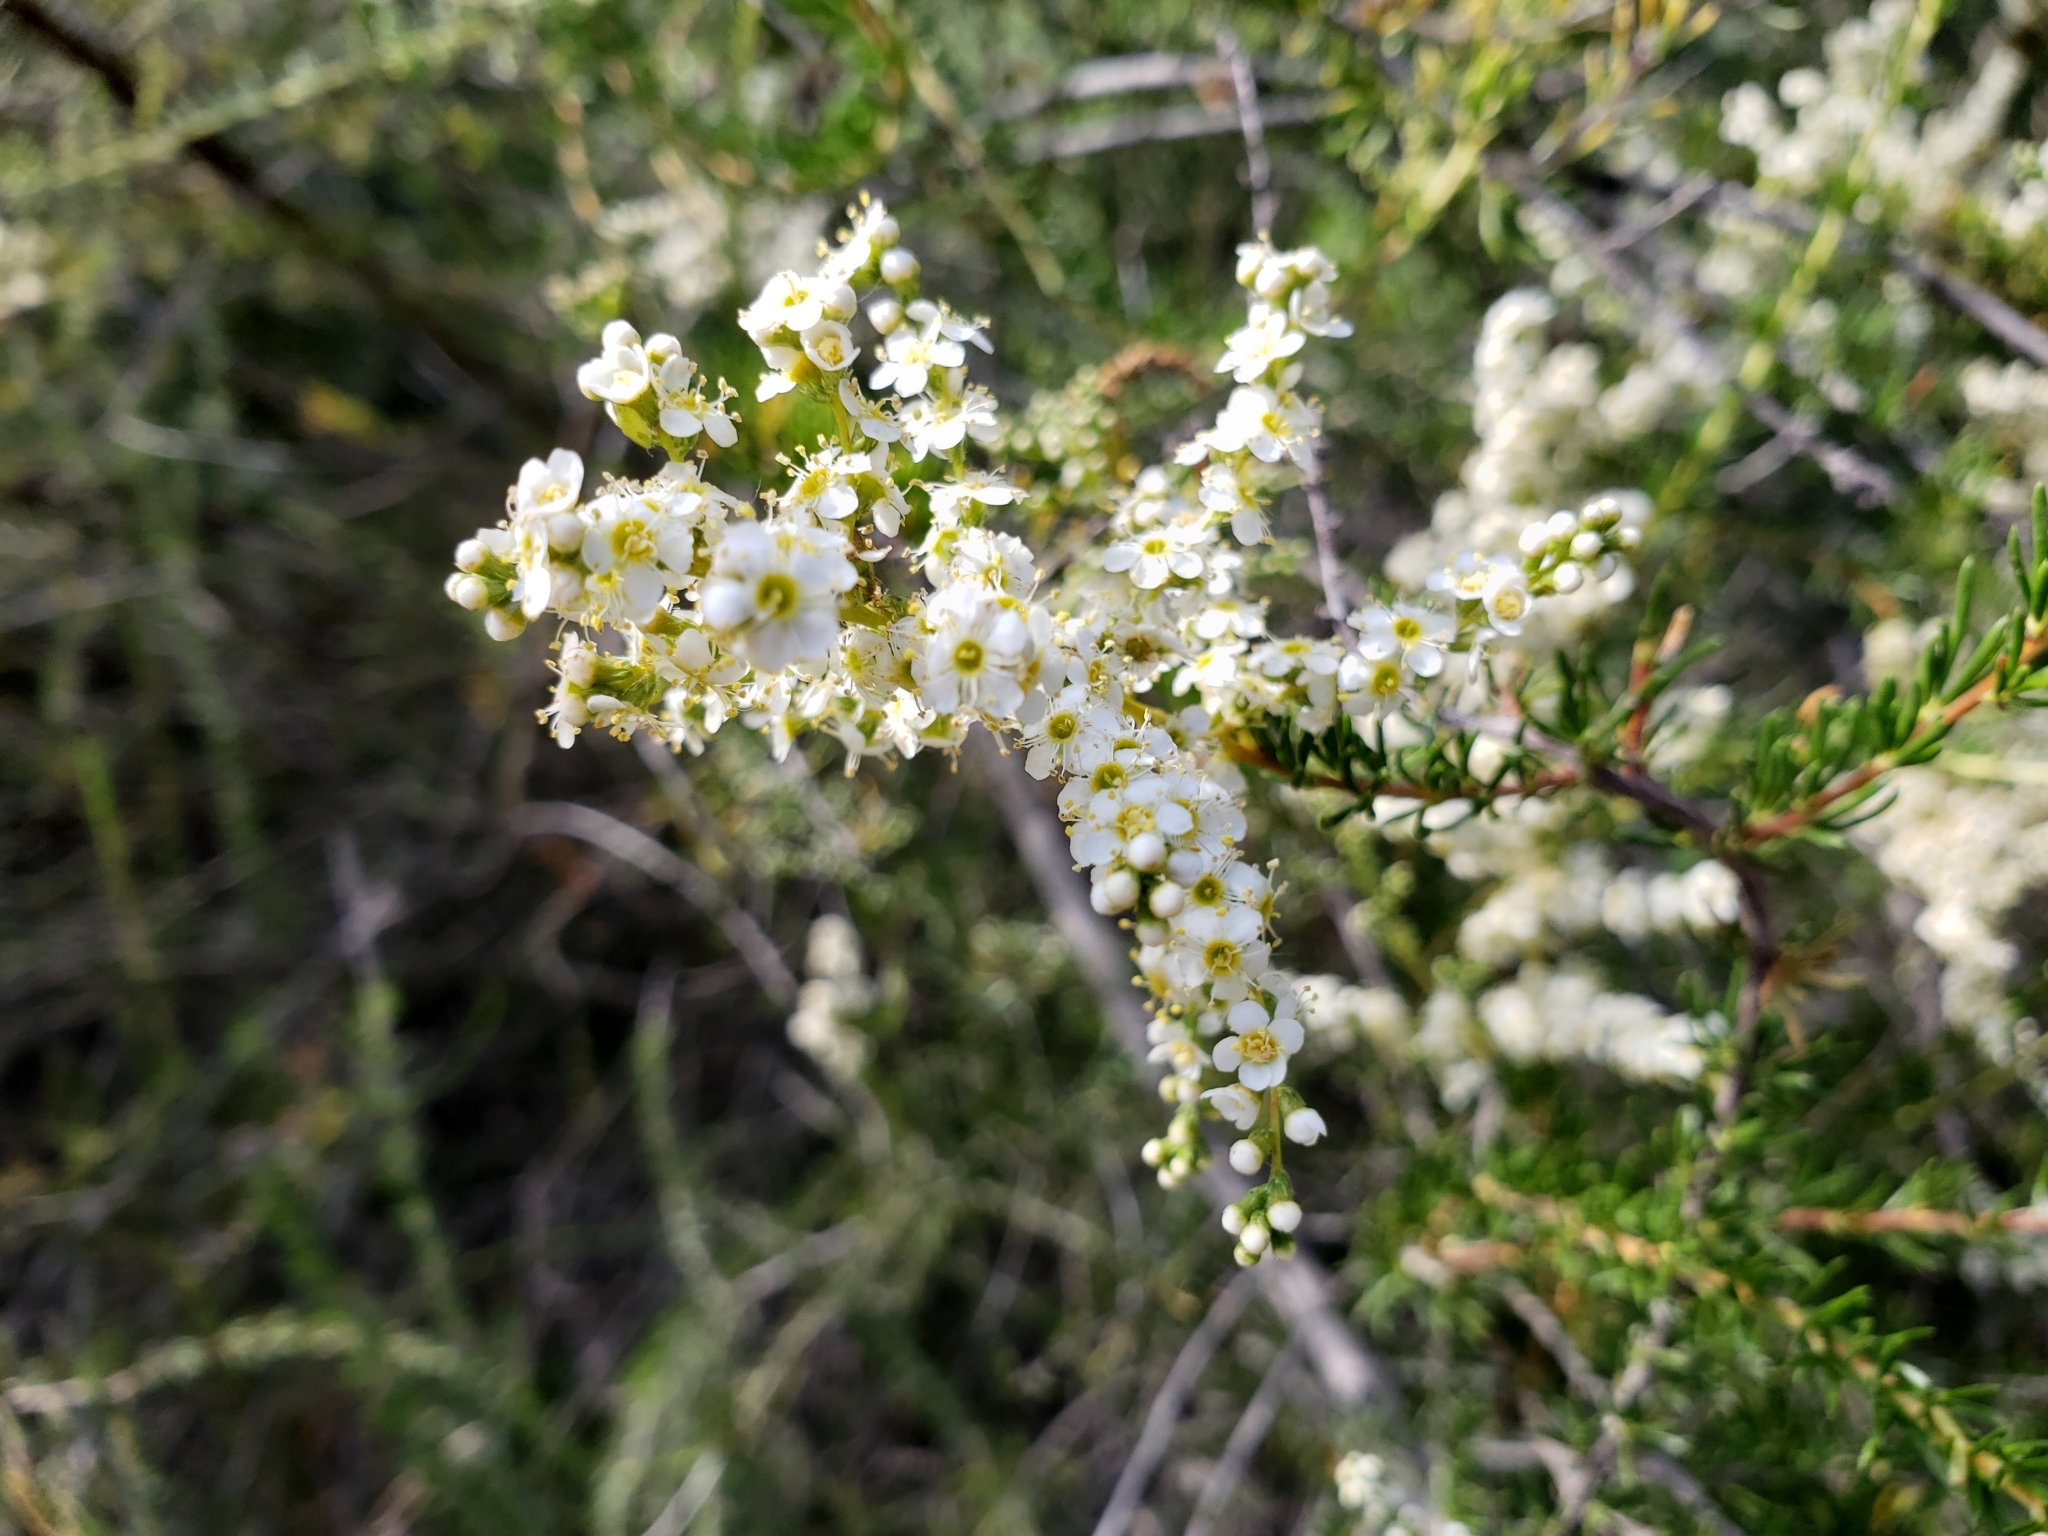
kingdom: Plantae
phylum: Tracheophyta
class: Magnoliopsida
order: Rosales
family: Rosaceae
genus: Adenostoma
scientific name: Adenostoma fasciculatum
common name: Chamise
